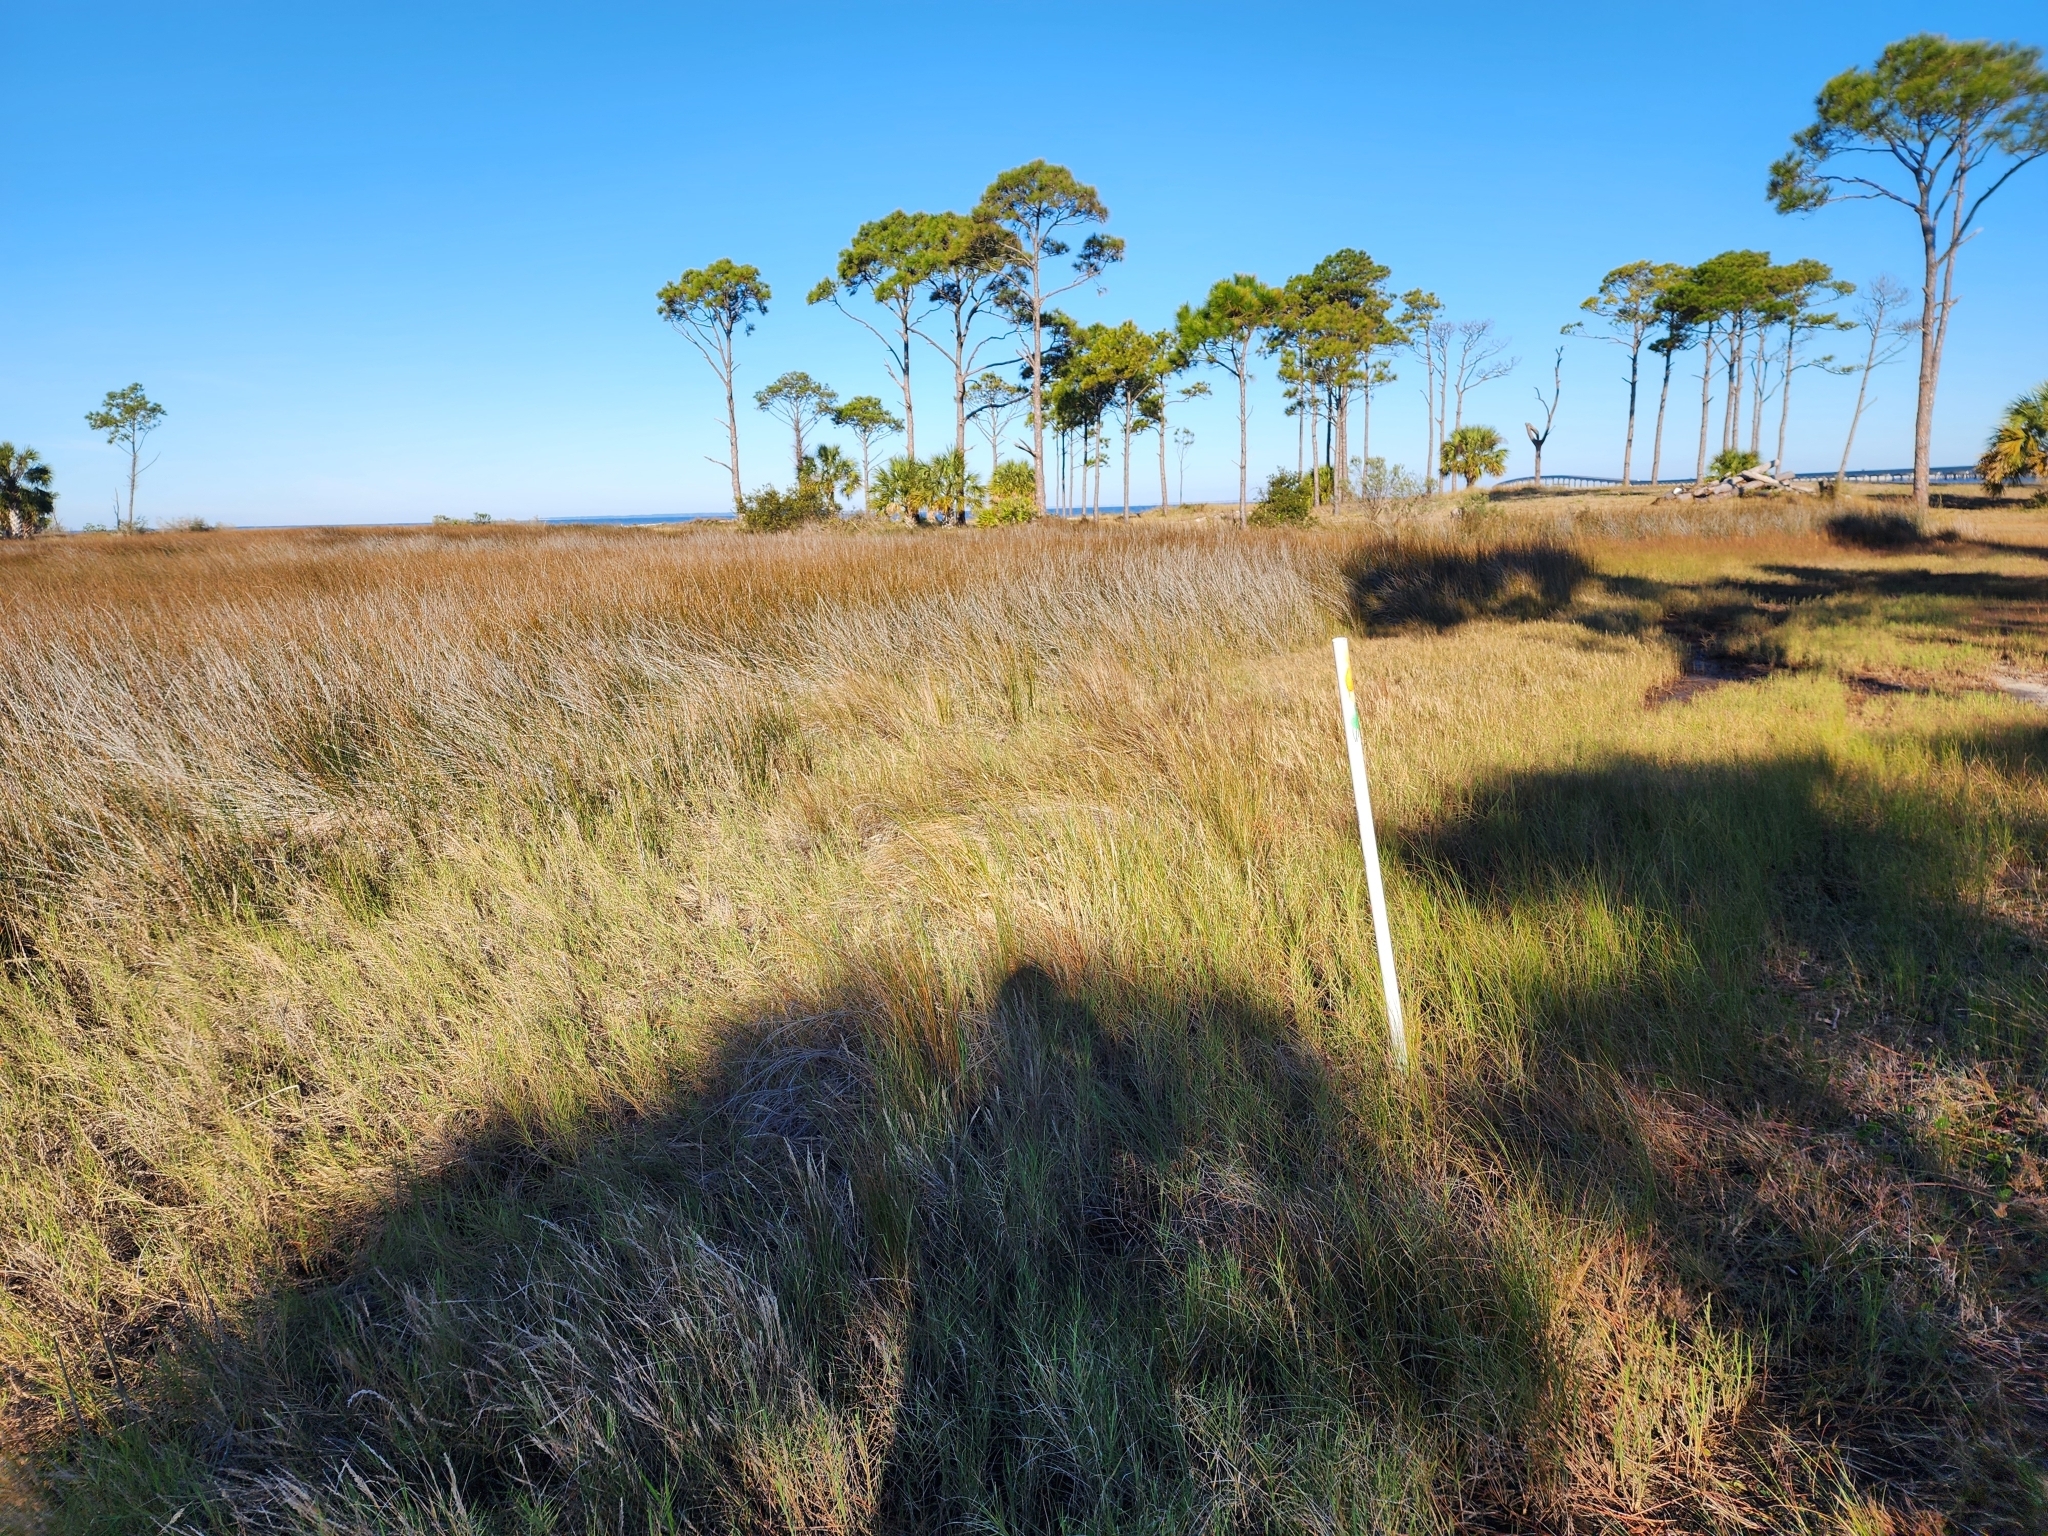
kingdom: Plantae
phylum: Tracheophyta
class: Magnoliopsida
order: Gentianales
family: Apocynaceae
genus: Pattalias
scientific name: Pattalias
